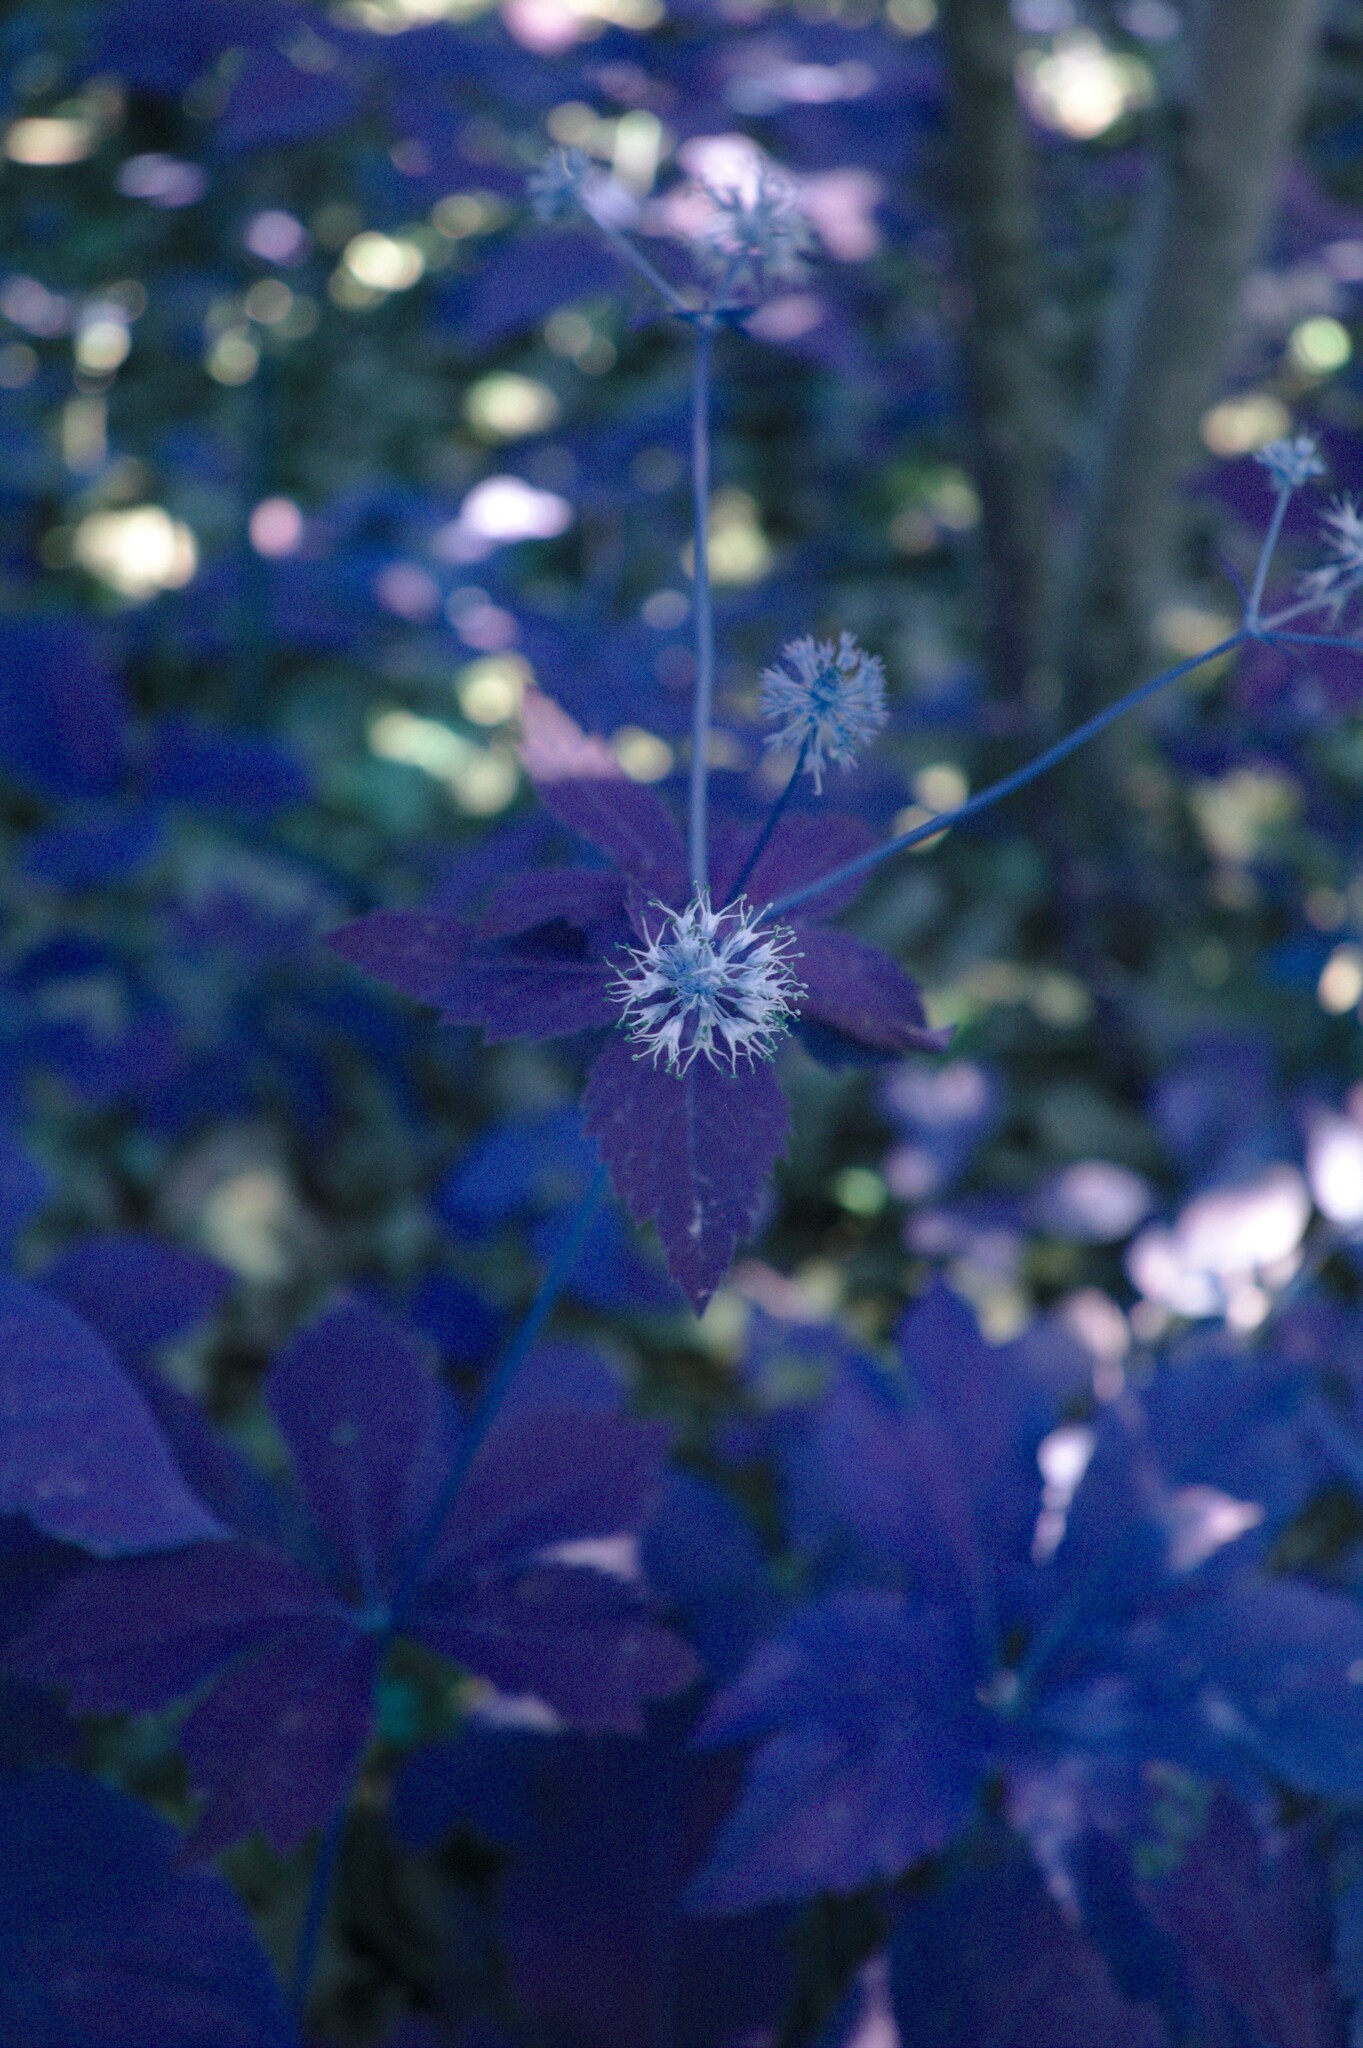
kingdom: Plantae
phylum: Tracheophyta
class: Magnoliopsida
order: Apiales
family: Apiaceae
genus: Sanicula
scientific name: Sanicula marilandica
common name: Black snakeroot
